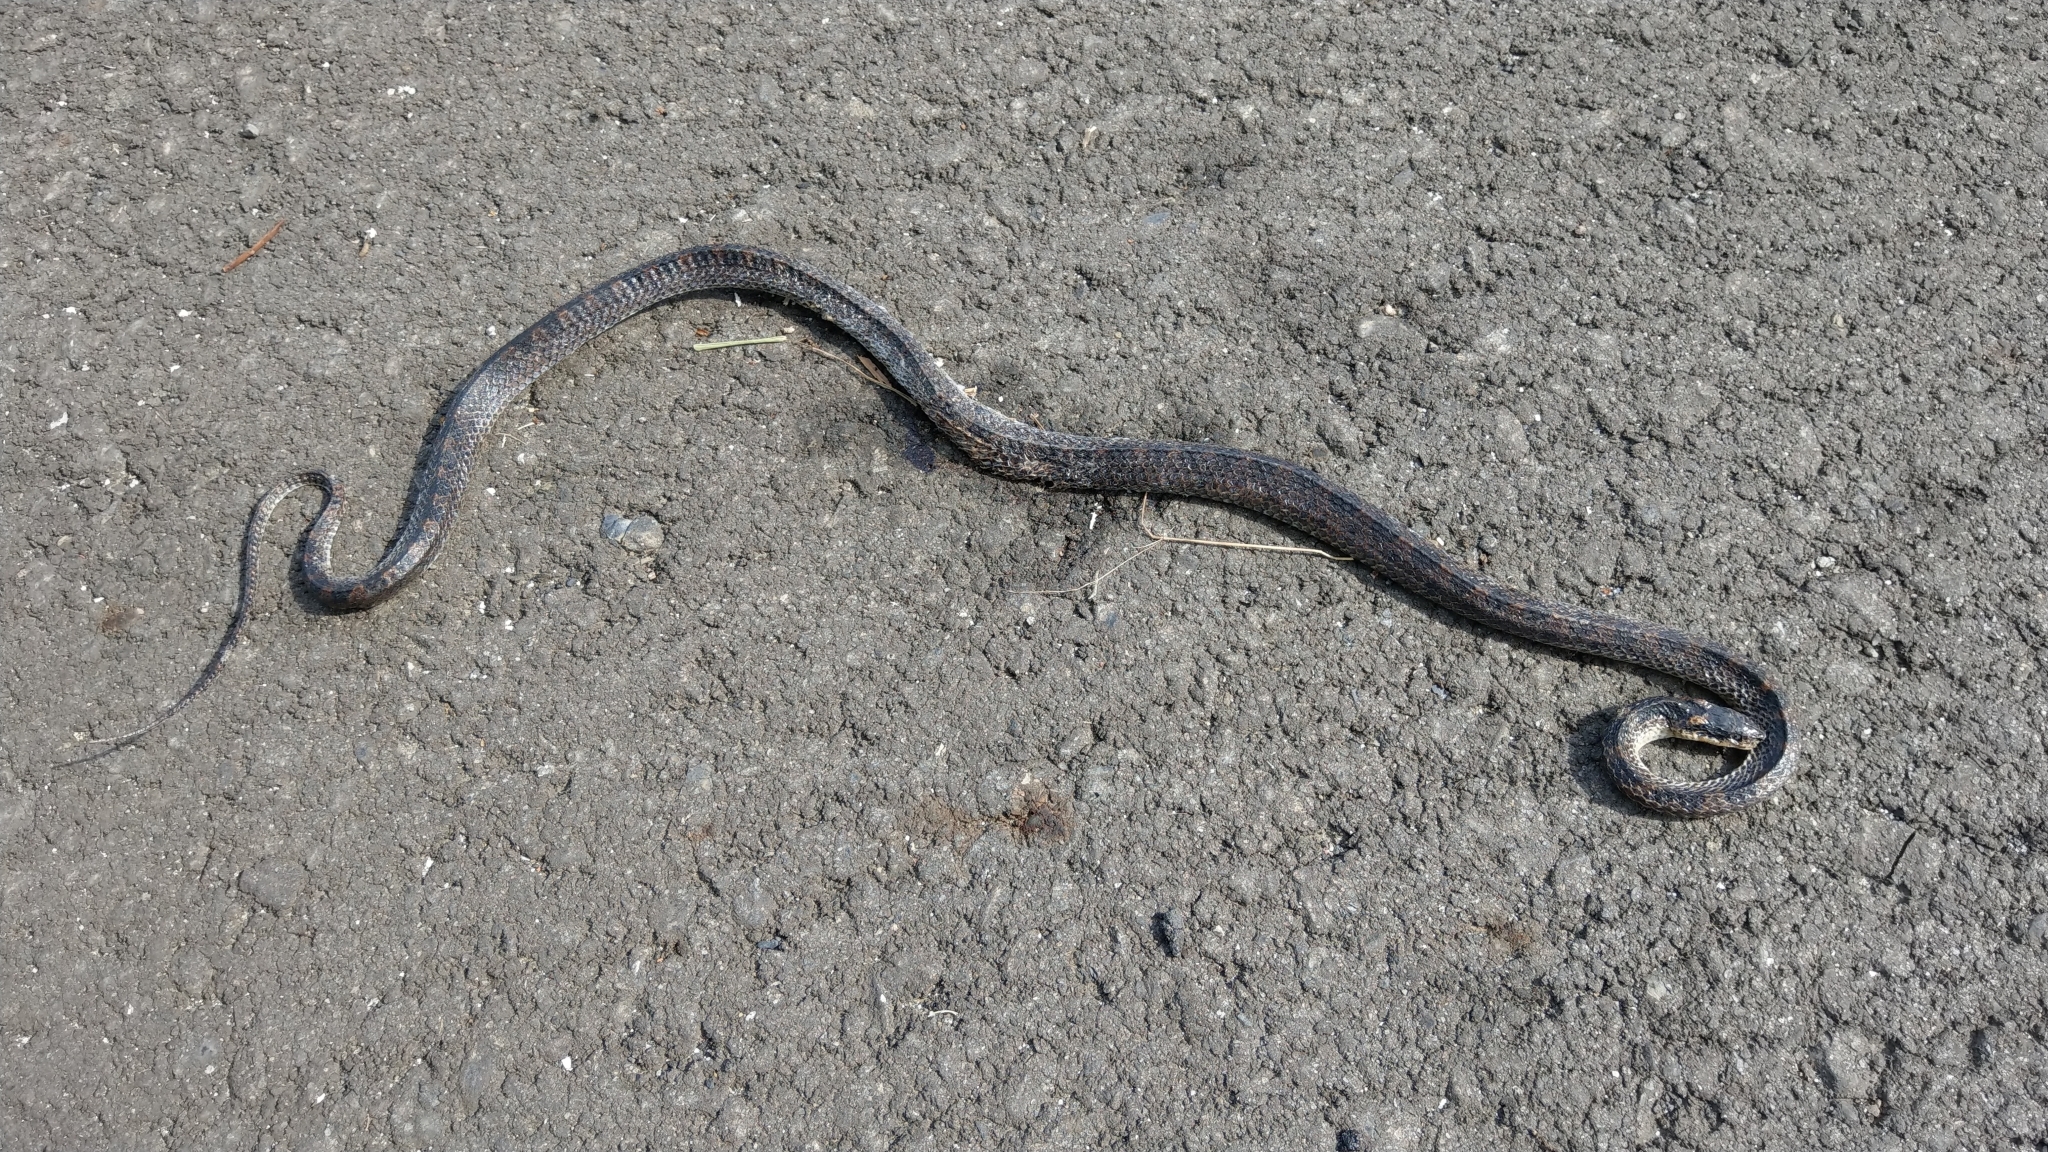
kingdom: Animalia
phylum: Chordata
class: Squamata
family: Colubridae
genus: Lycodon
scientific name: Lycodon rufozonatus
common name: Red-banded snake
